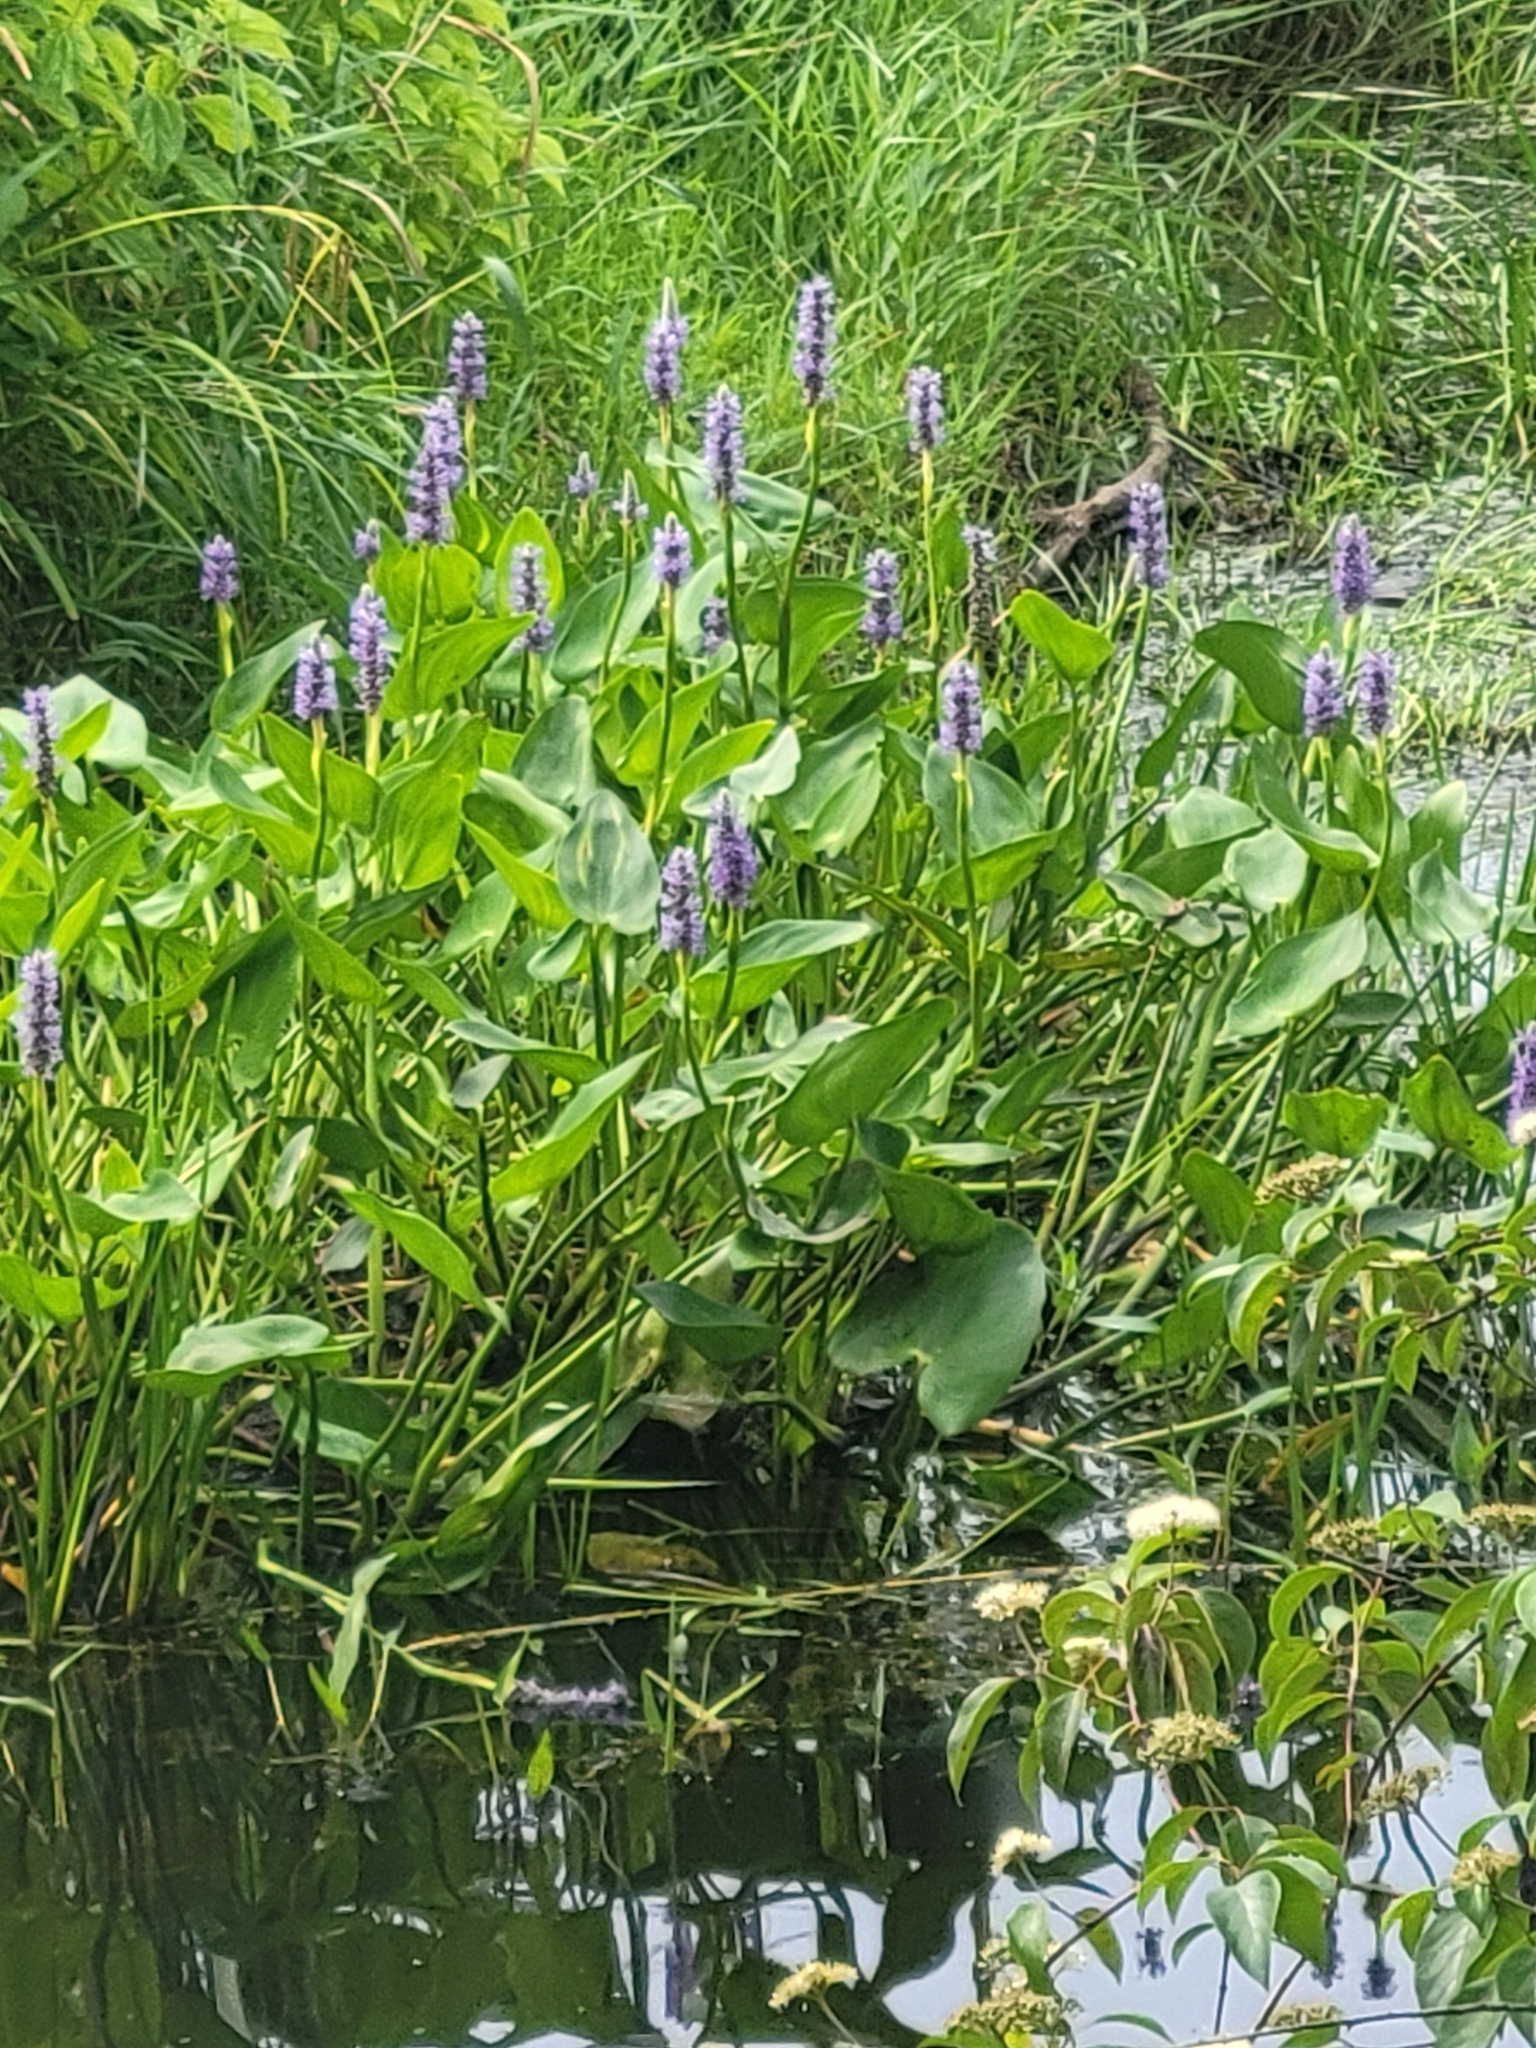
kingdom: Plantae
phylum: Tracheophyta
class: Liliopsida
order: Commelinales
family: Pontederiaceae
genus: Pontederia
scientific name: Pontederia cordata
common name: Pickerelweed
